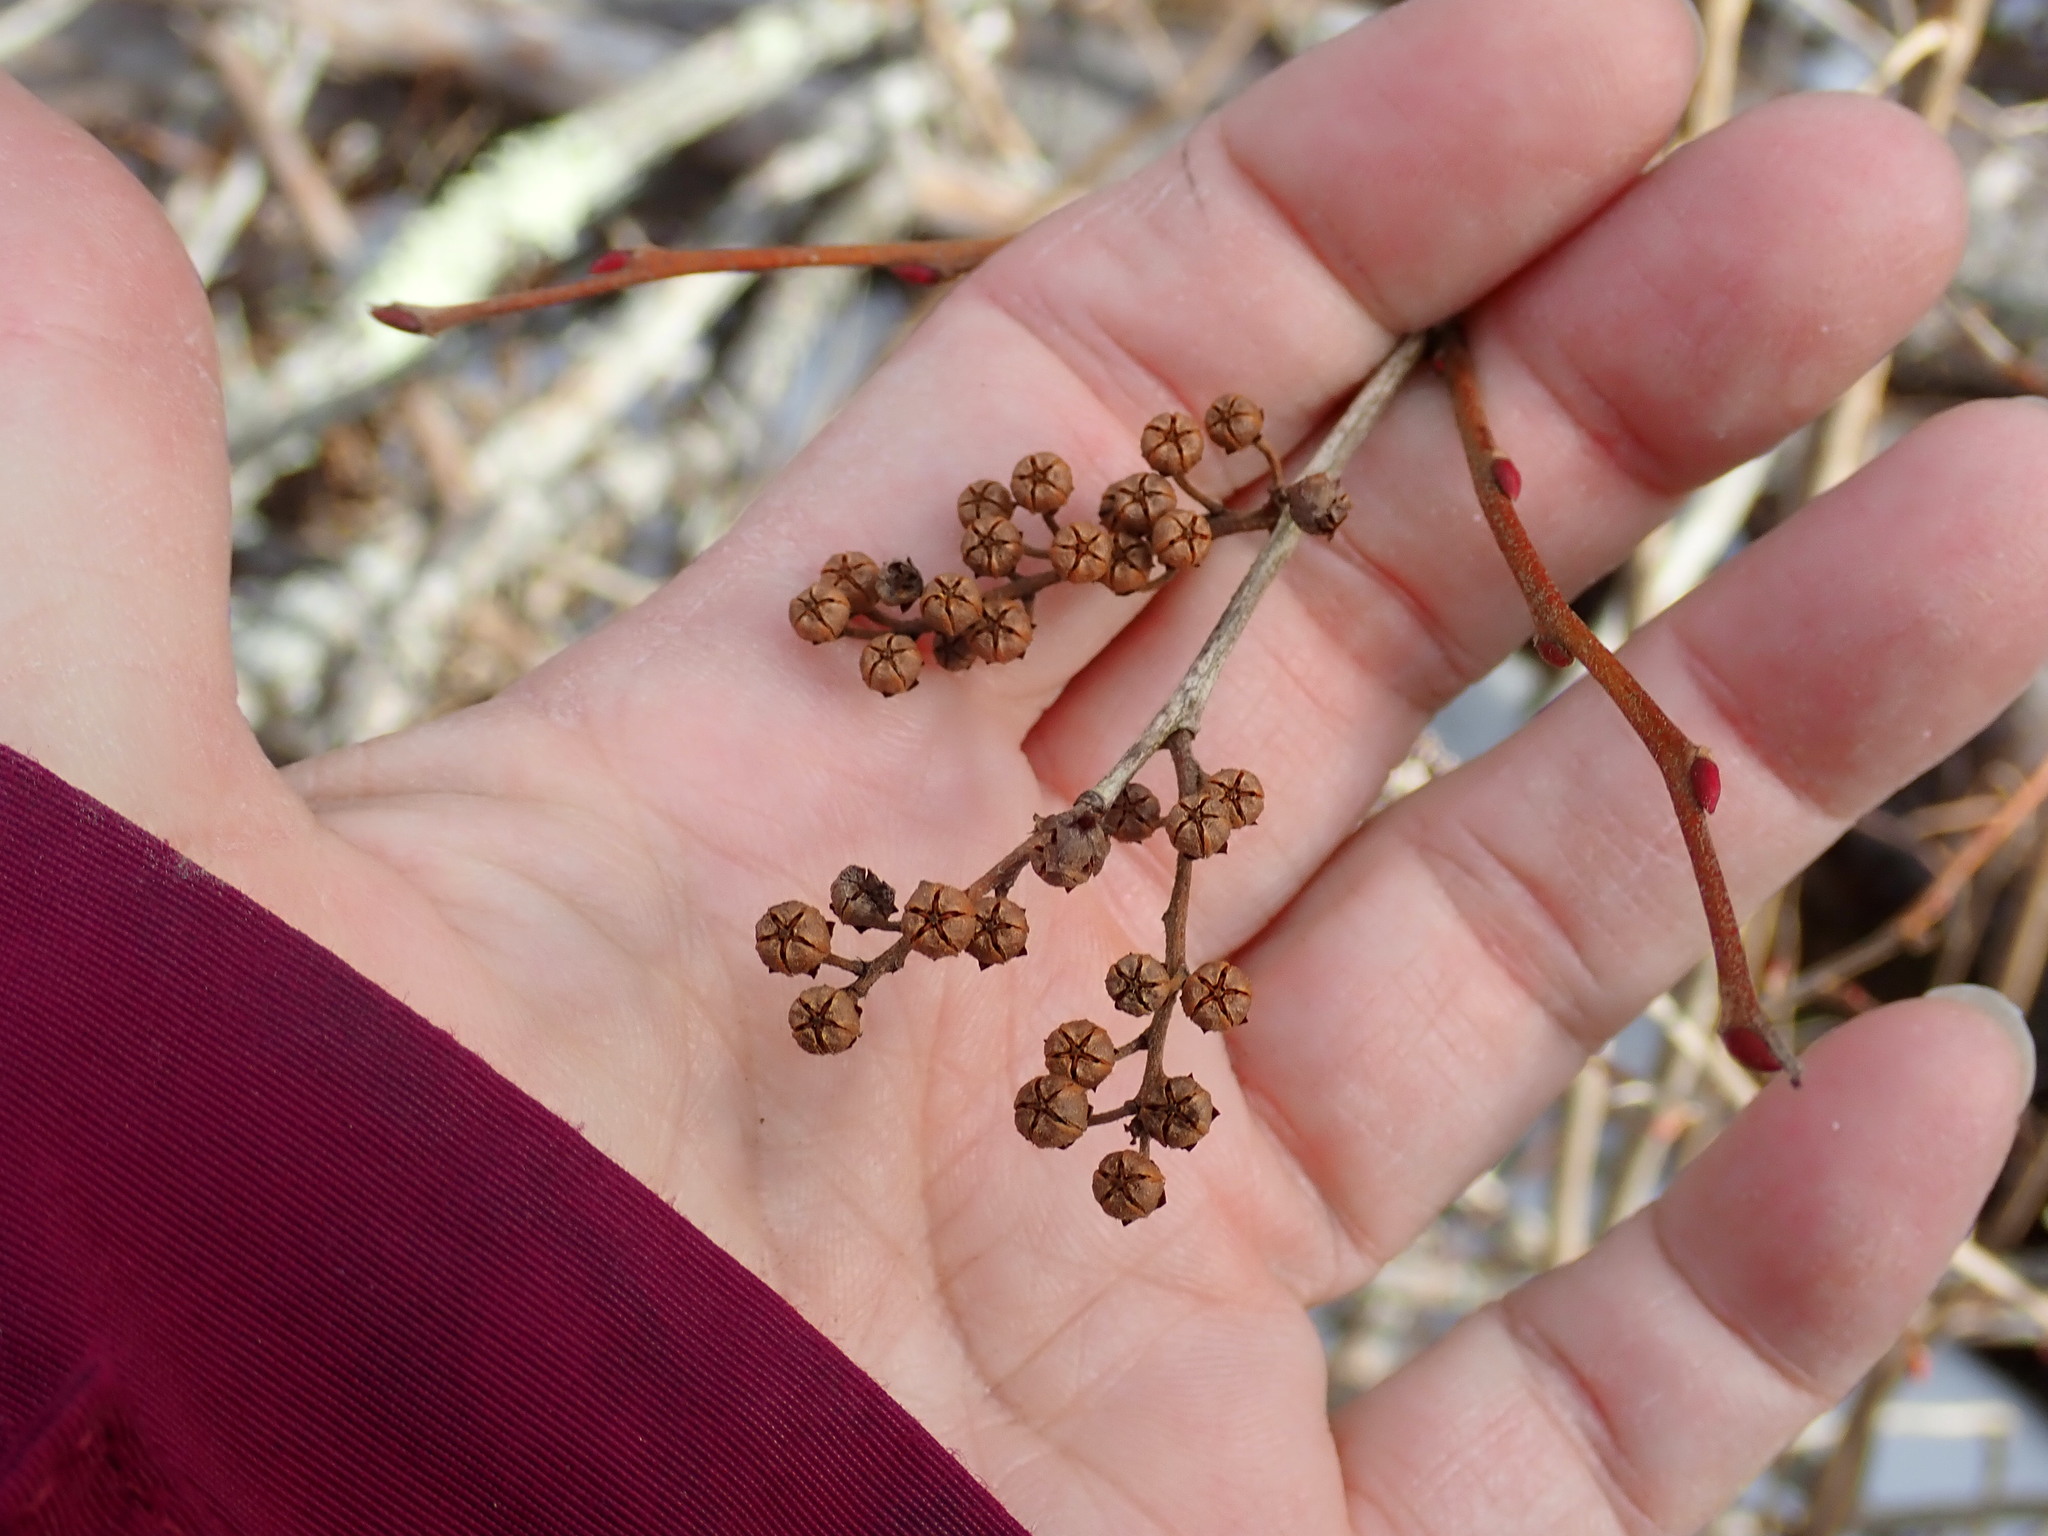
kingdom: Plantae
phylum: Tracheophyta
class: Magnoliopsida
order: Ericales
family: Ericaceae
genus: Lyonia
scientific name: Lyonia ligustrina
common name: Maleberry
